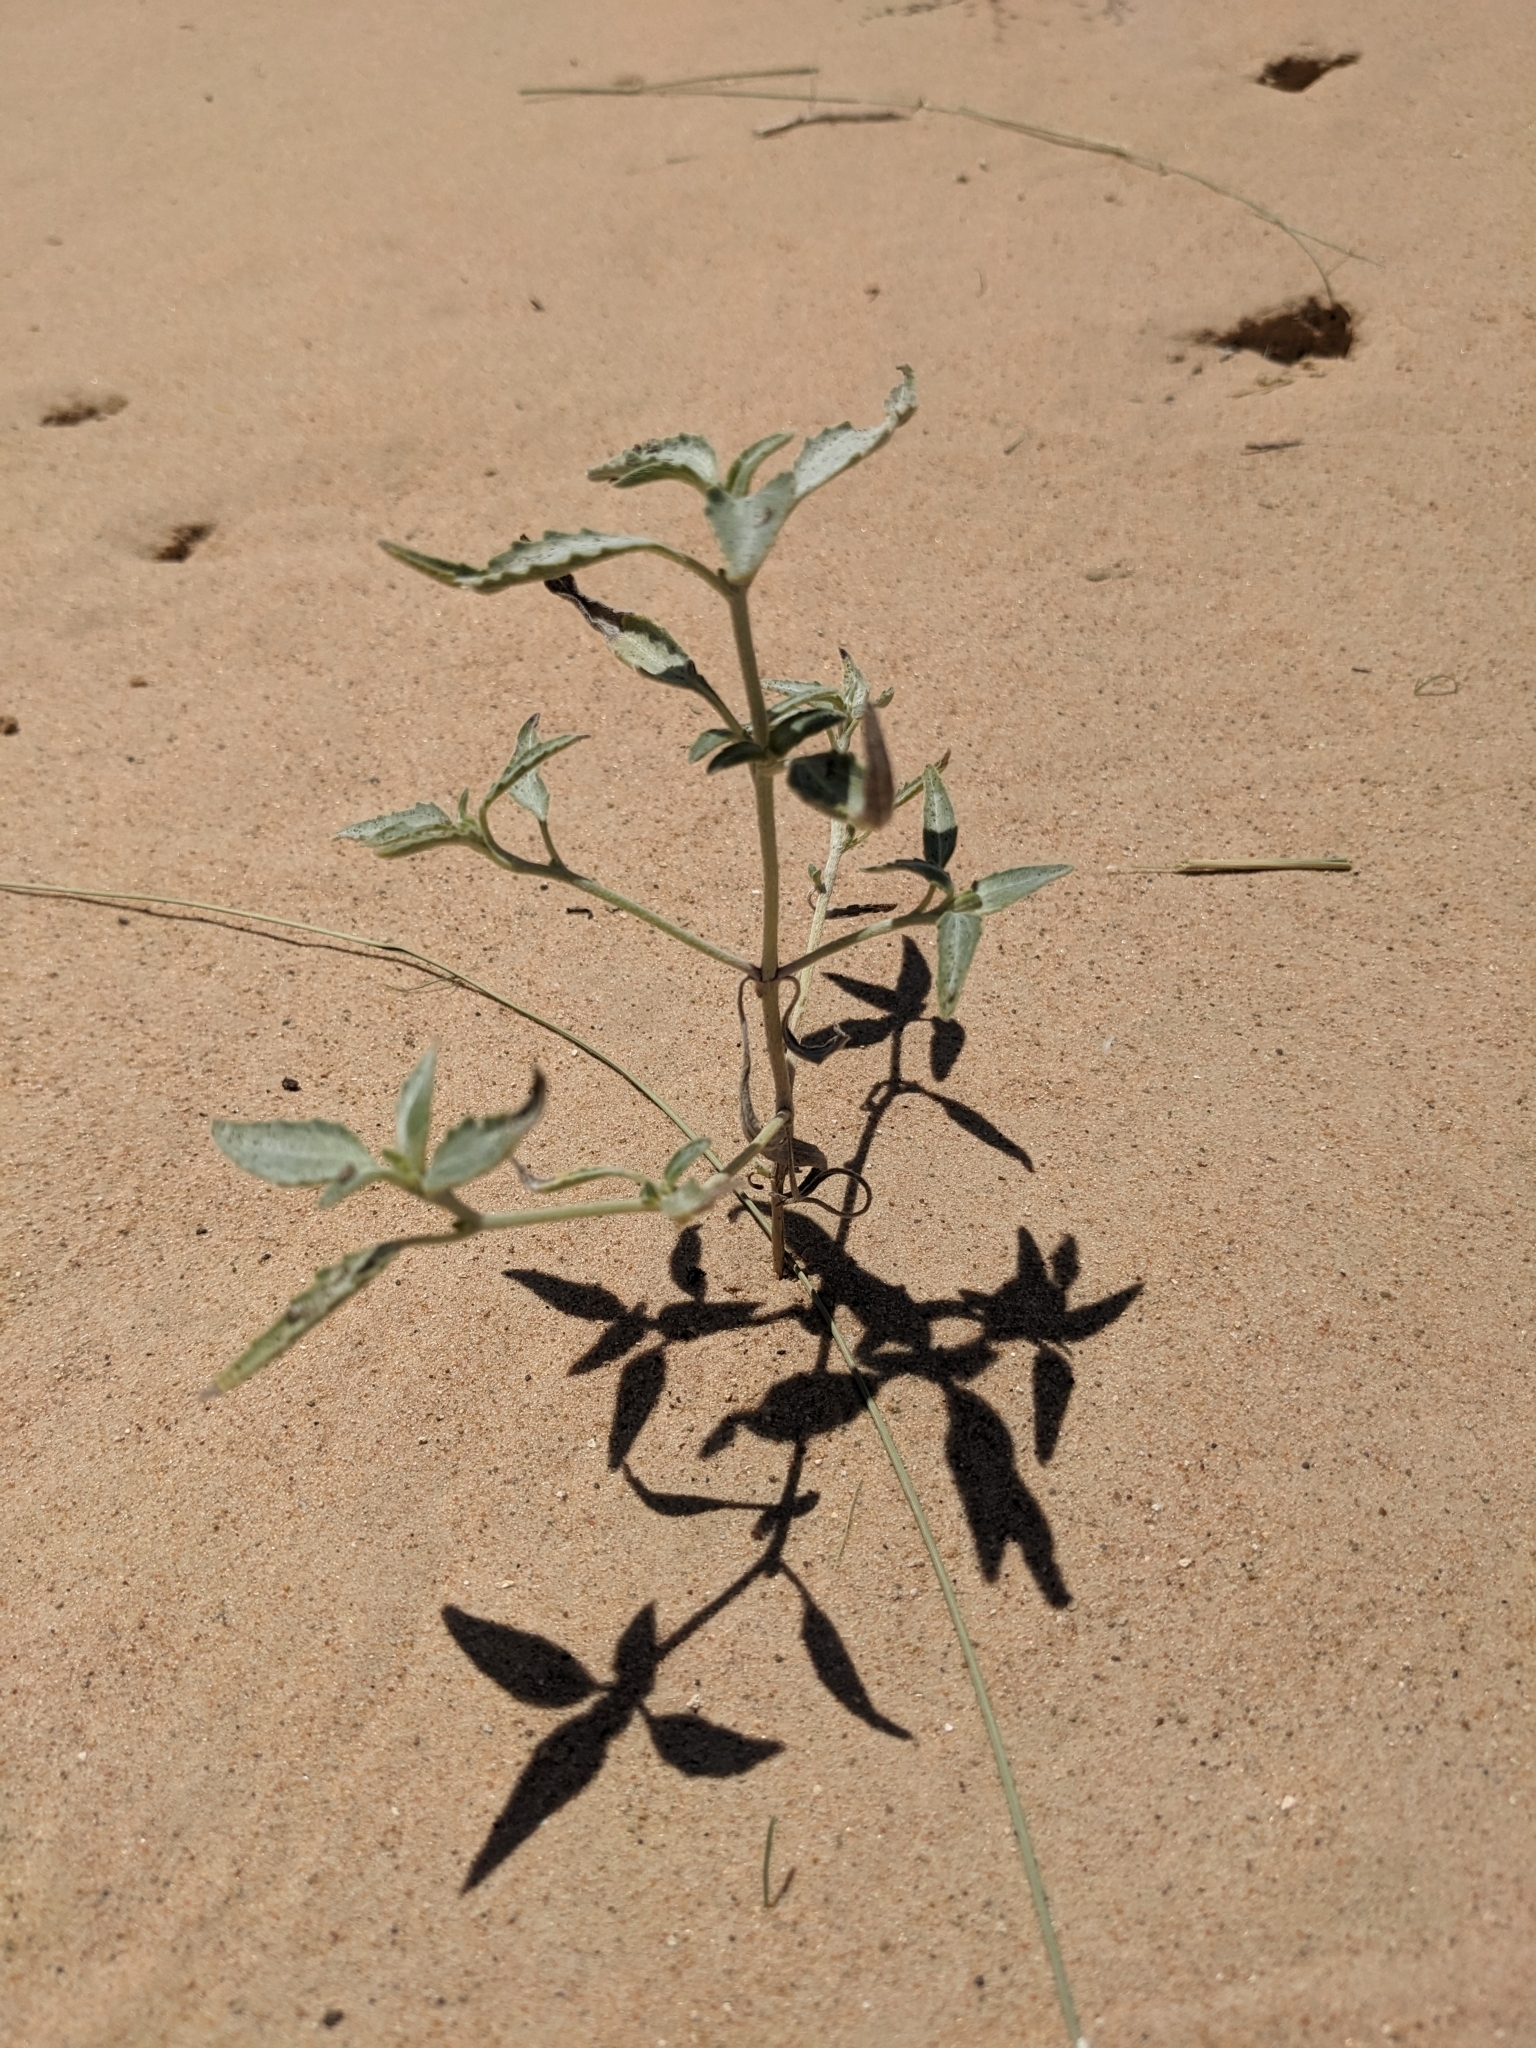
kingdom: Plantae
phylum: Tracheophyta
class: Magnoliopsida
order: Asterales
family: Asteraceae
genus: Dicoria
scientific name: Dicoria canescens
